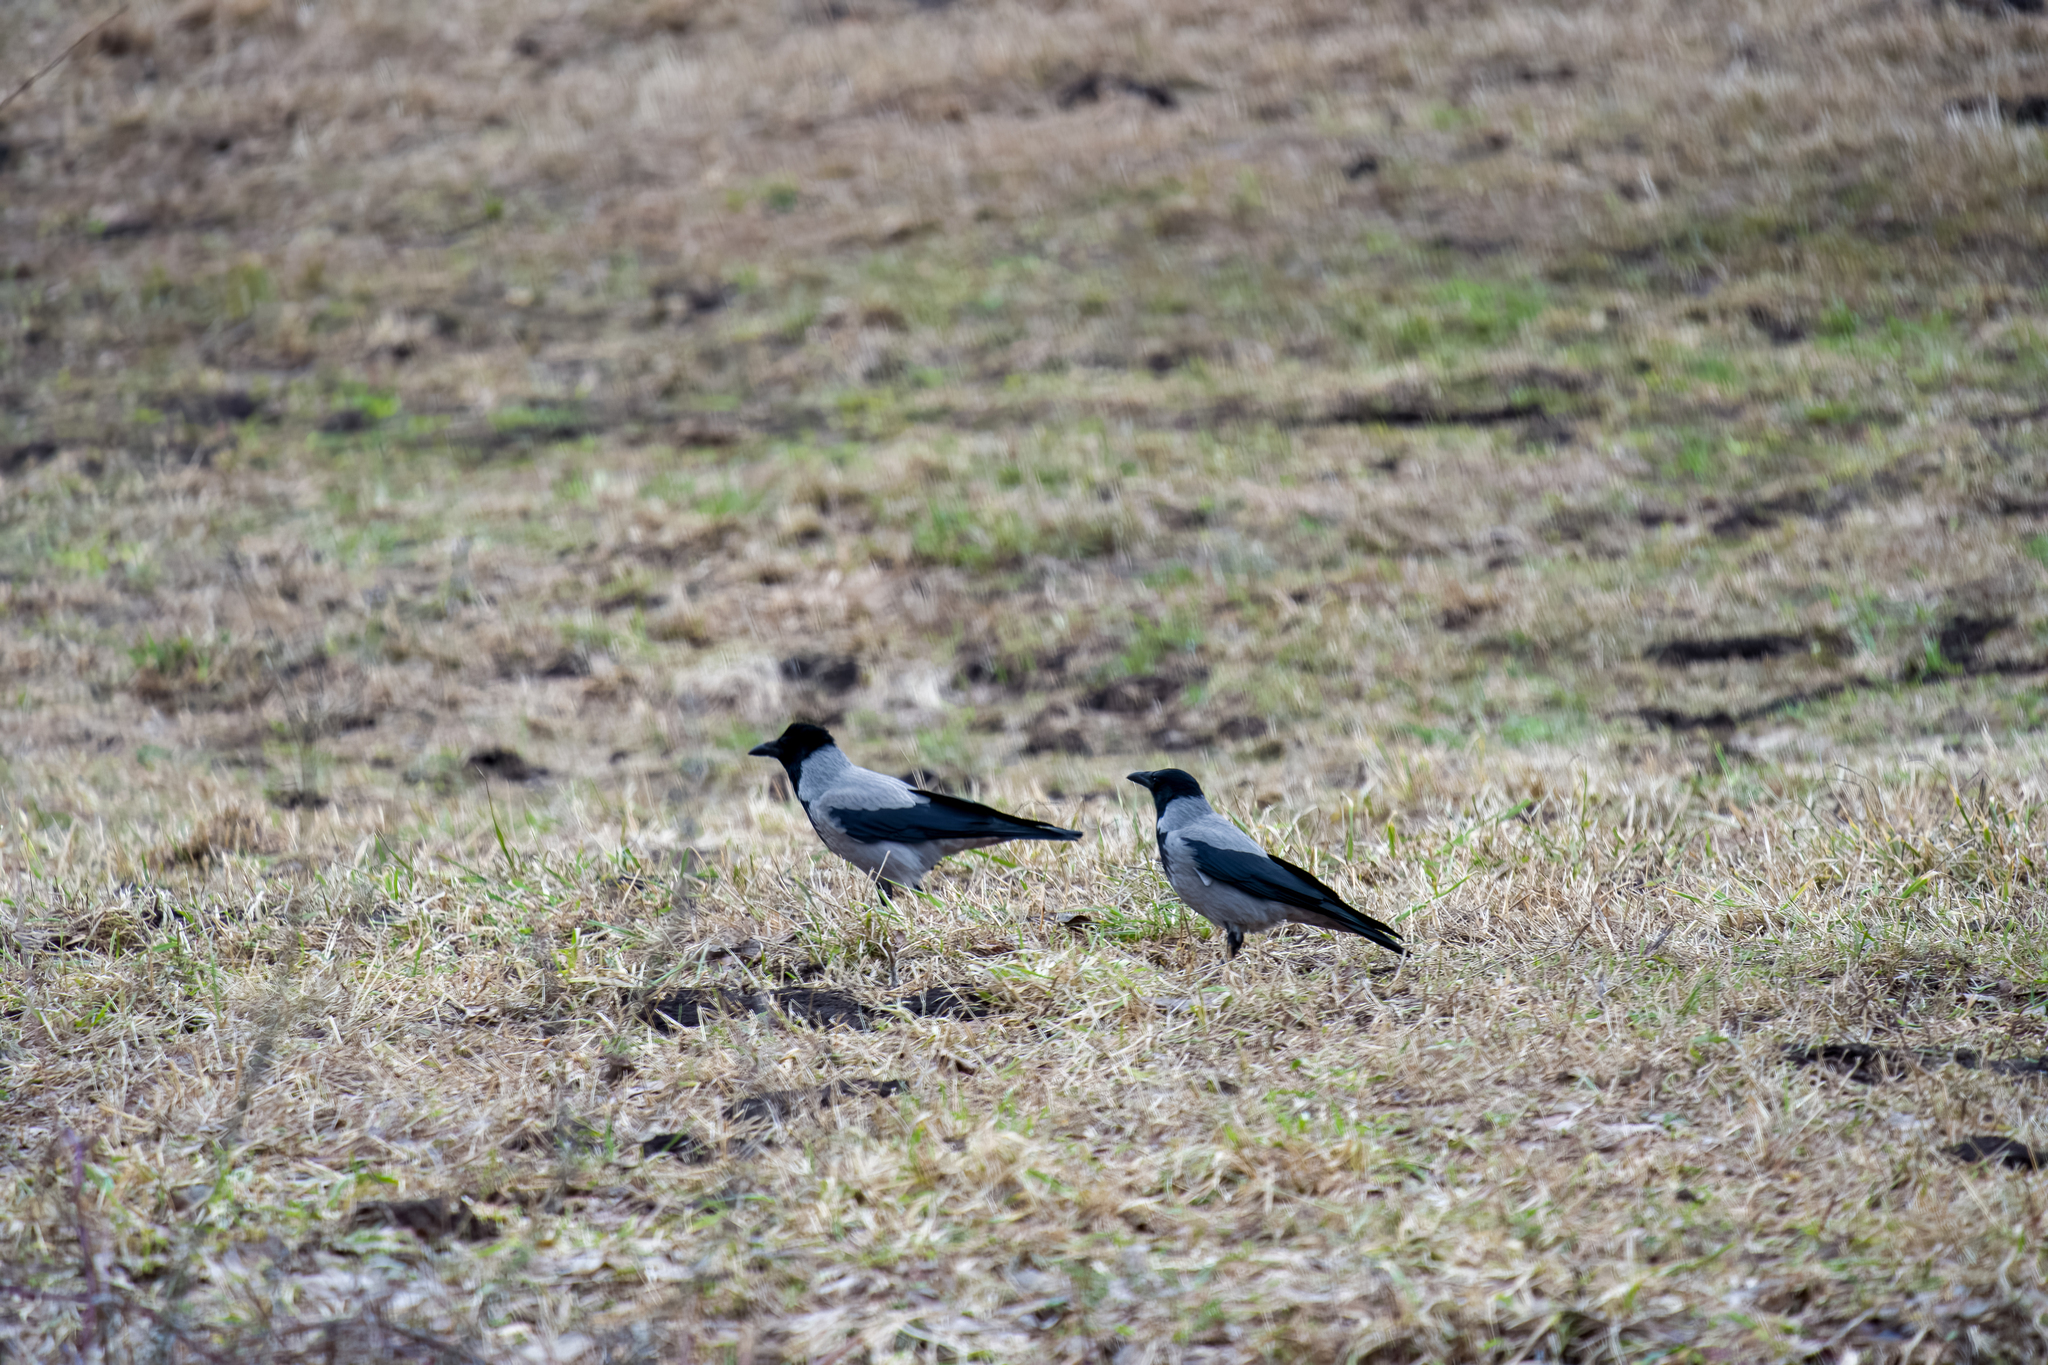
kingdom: Animalia
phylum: Chordata
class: Aves
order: Passeriformes
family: Corvidae
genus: Corvus
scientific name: Corvus cornix
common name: Hooded crow
